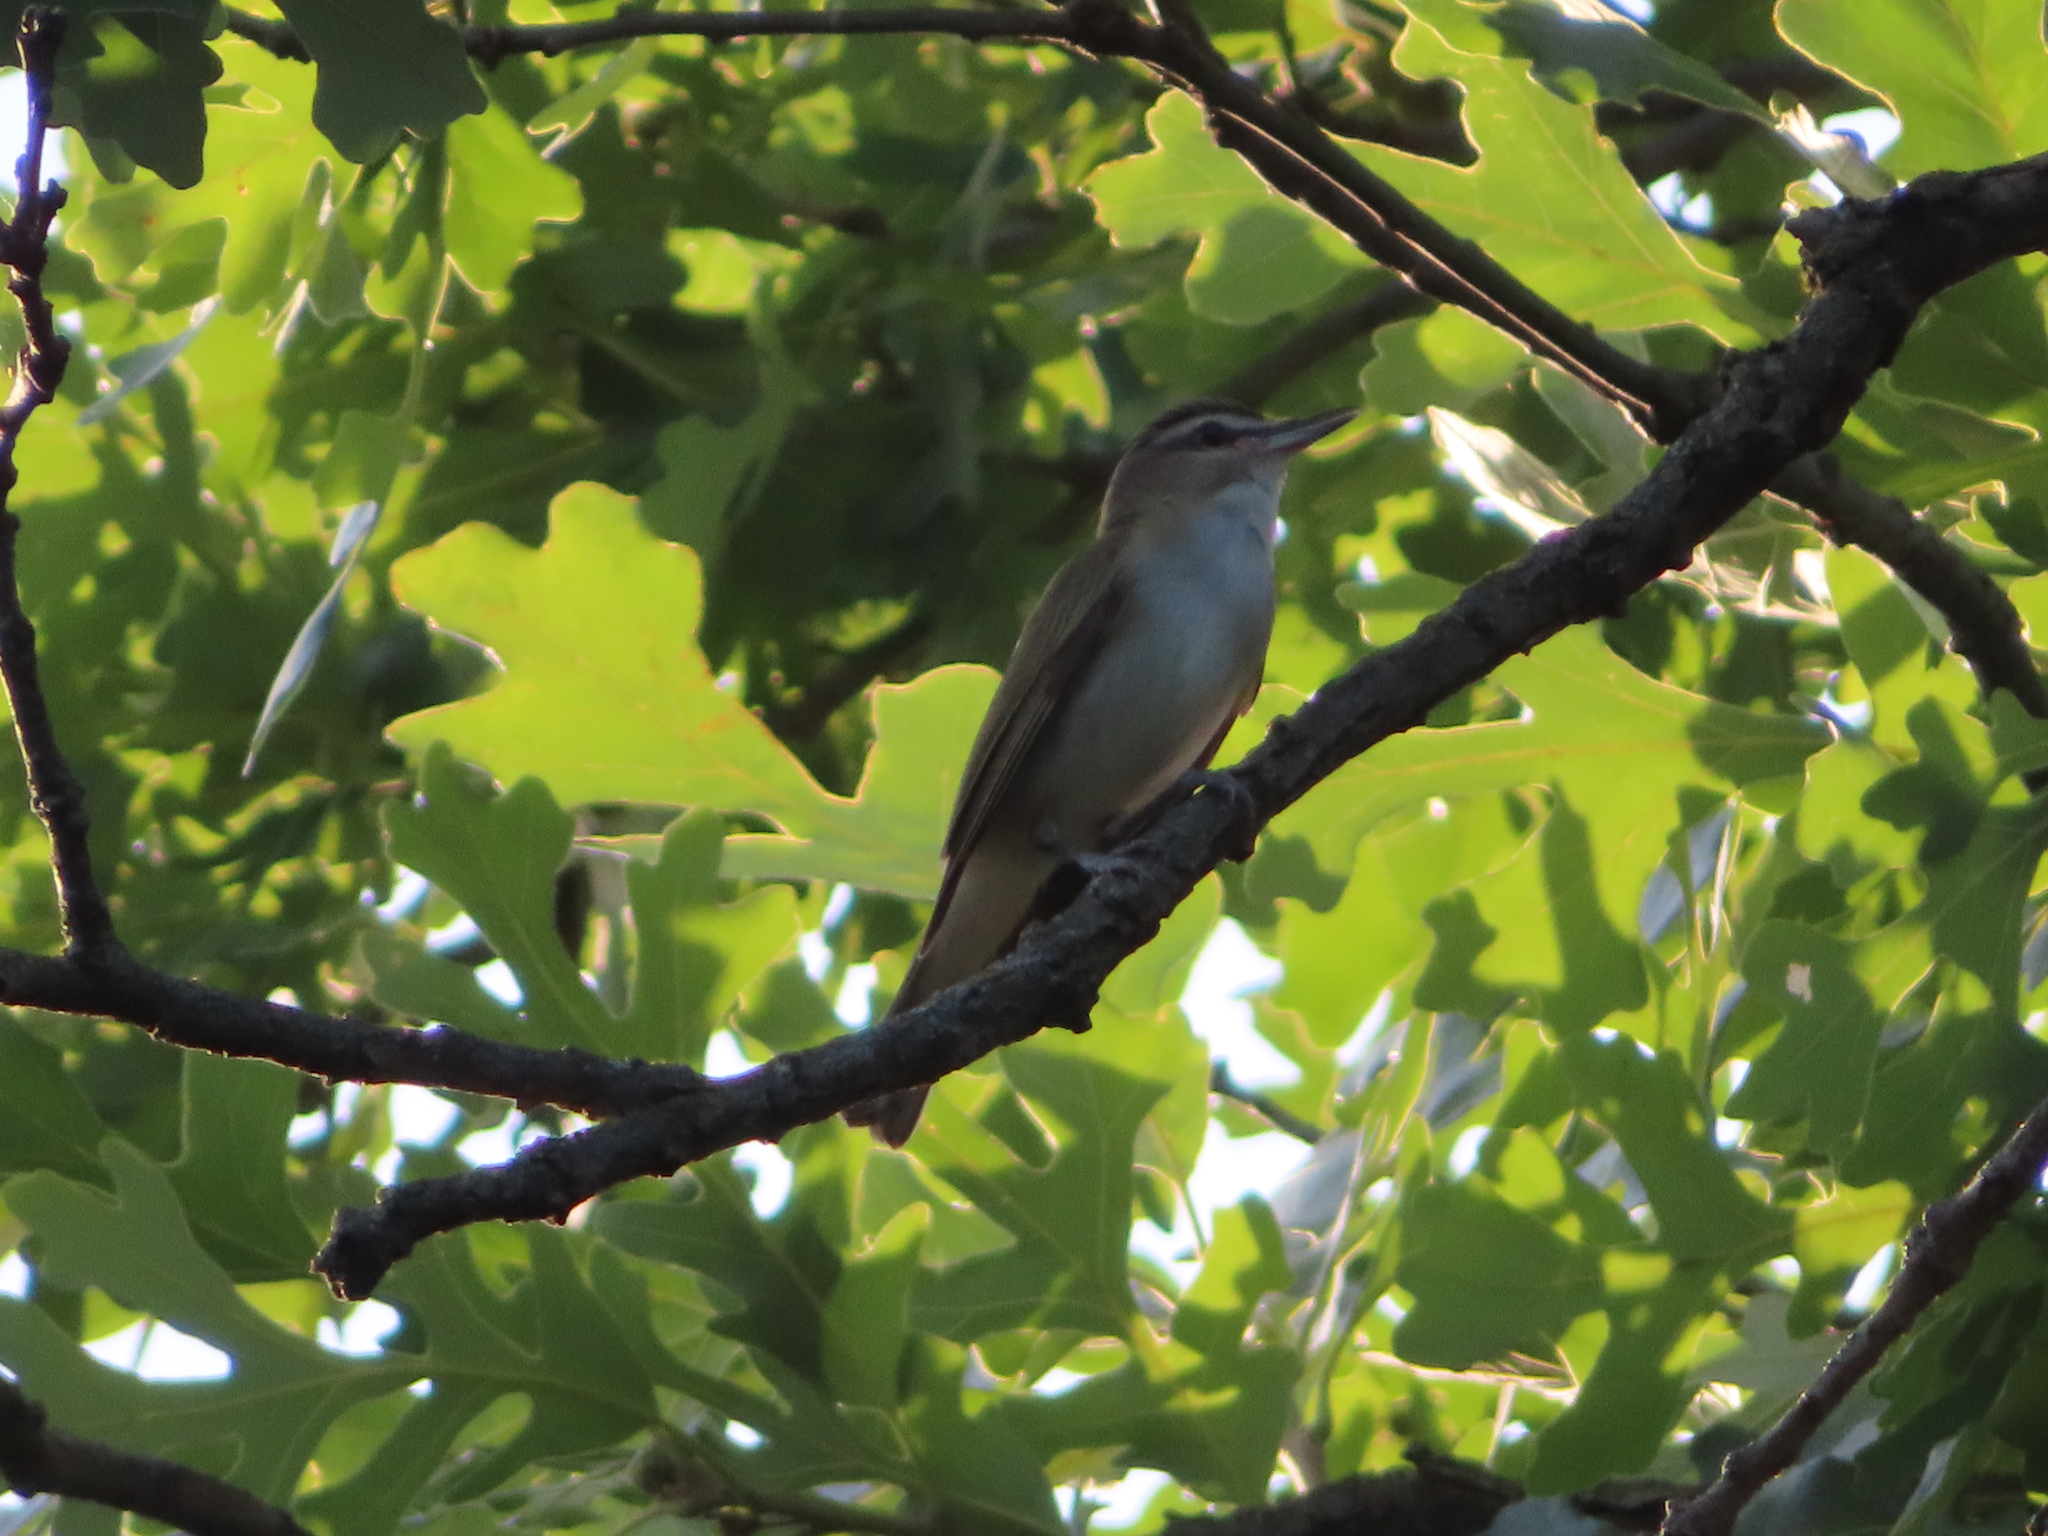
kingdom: Animalia
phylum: Chordata
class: Aves
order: Passeriformes
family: Vireonidae
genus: Vireo
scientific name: Vireo olivaceus
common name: Red-eyed vireo
